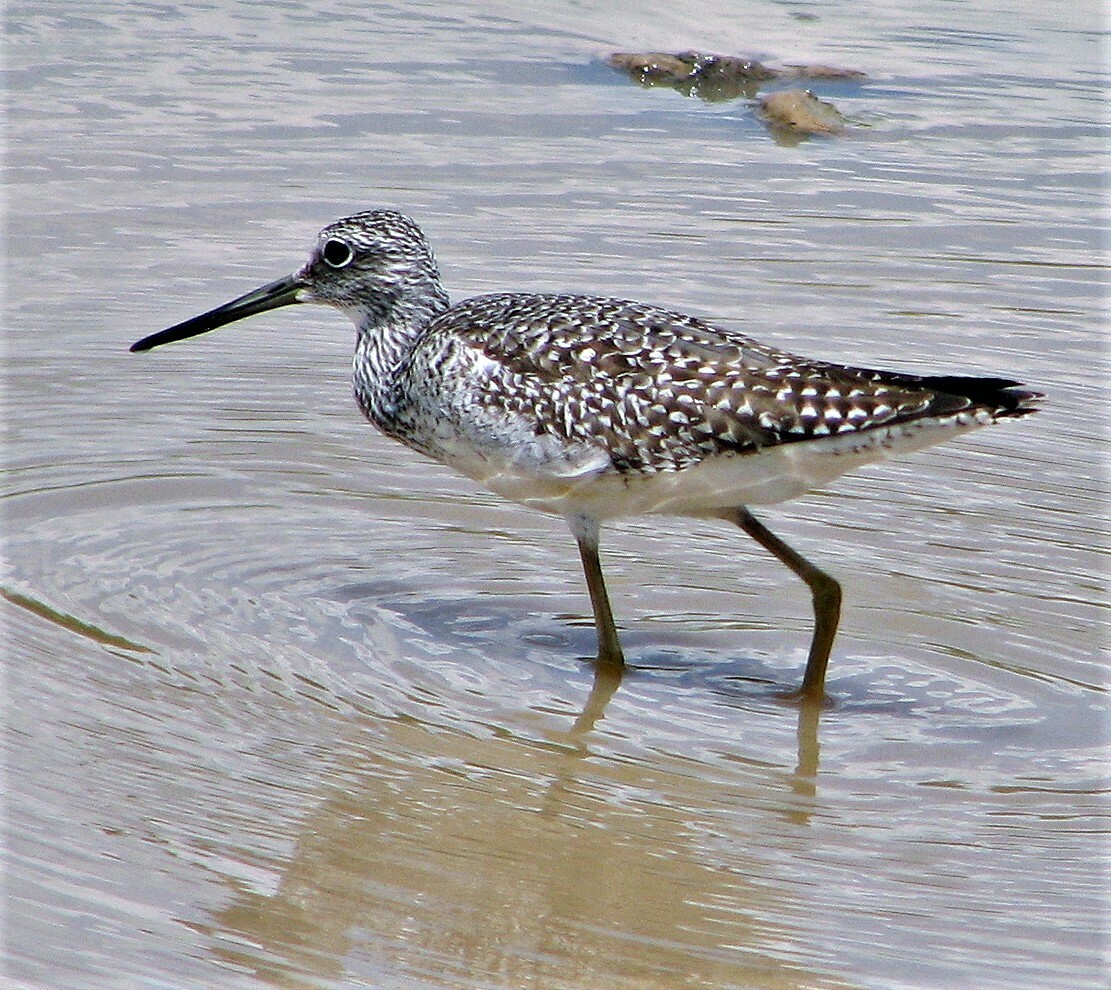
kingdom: Animalia
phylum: Chordata
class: Aves
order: Charadriiformes
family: Scolopacidae
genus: Tringa
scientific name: Tringa melanoleuca
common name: Greater yellowlegs
